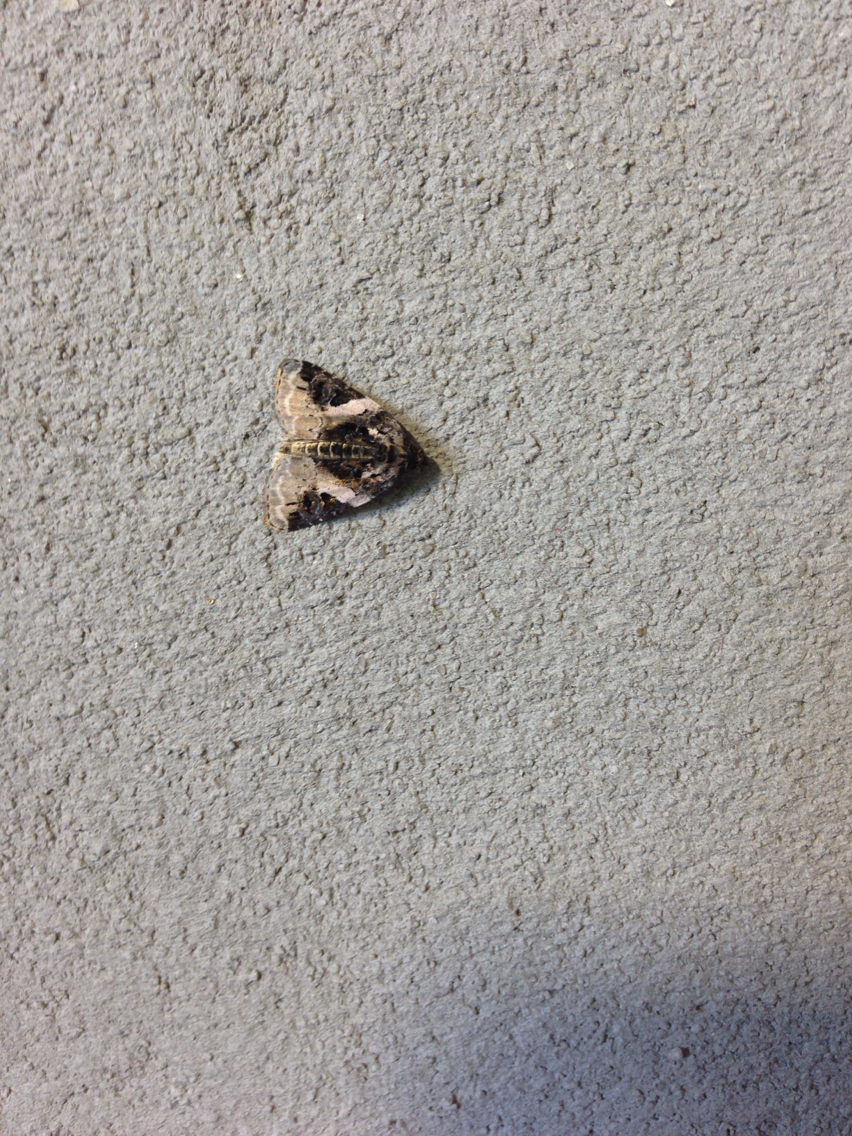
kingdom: Animalia
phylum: Arthropoda
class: Insecta
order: Lepidoptera
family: Noctuidae
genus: Pseudeustrotia
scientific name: Pseudeustrotia carneola
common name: Pink-barred lithacodia moth
